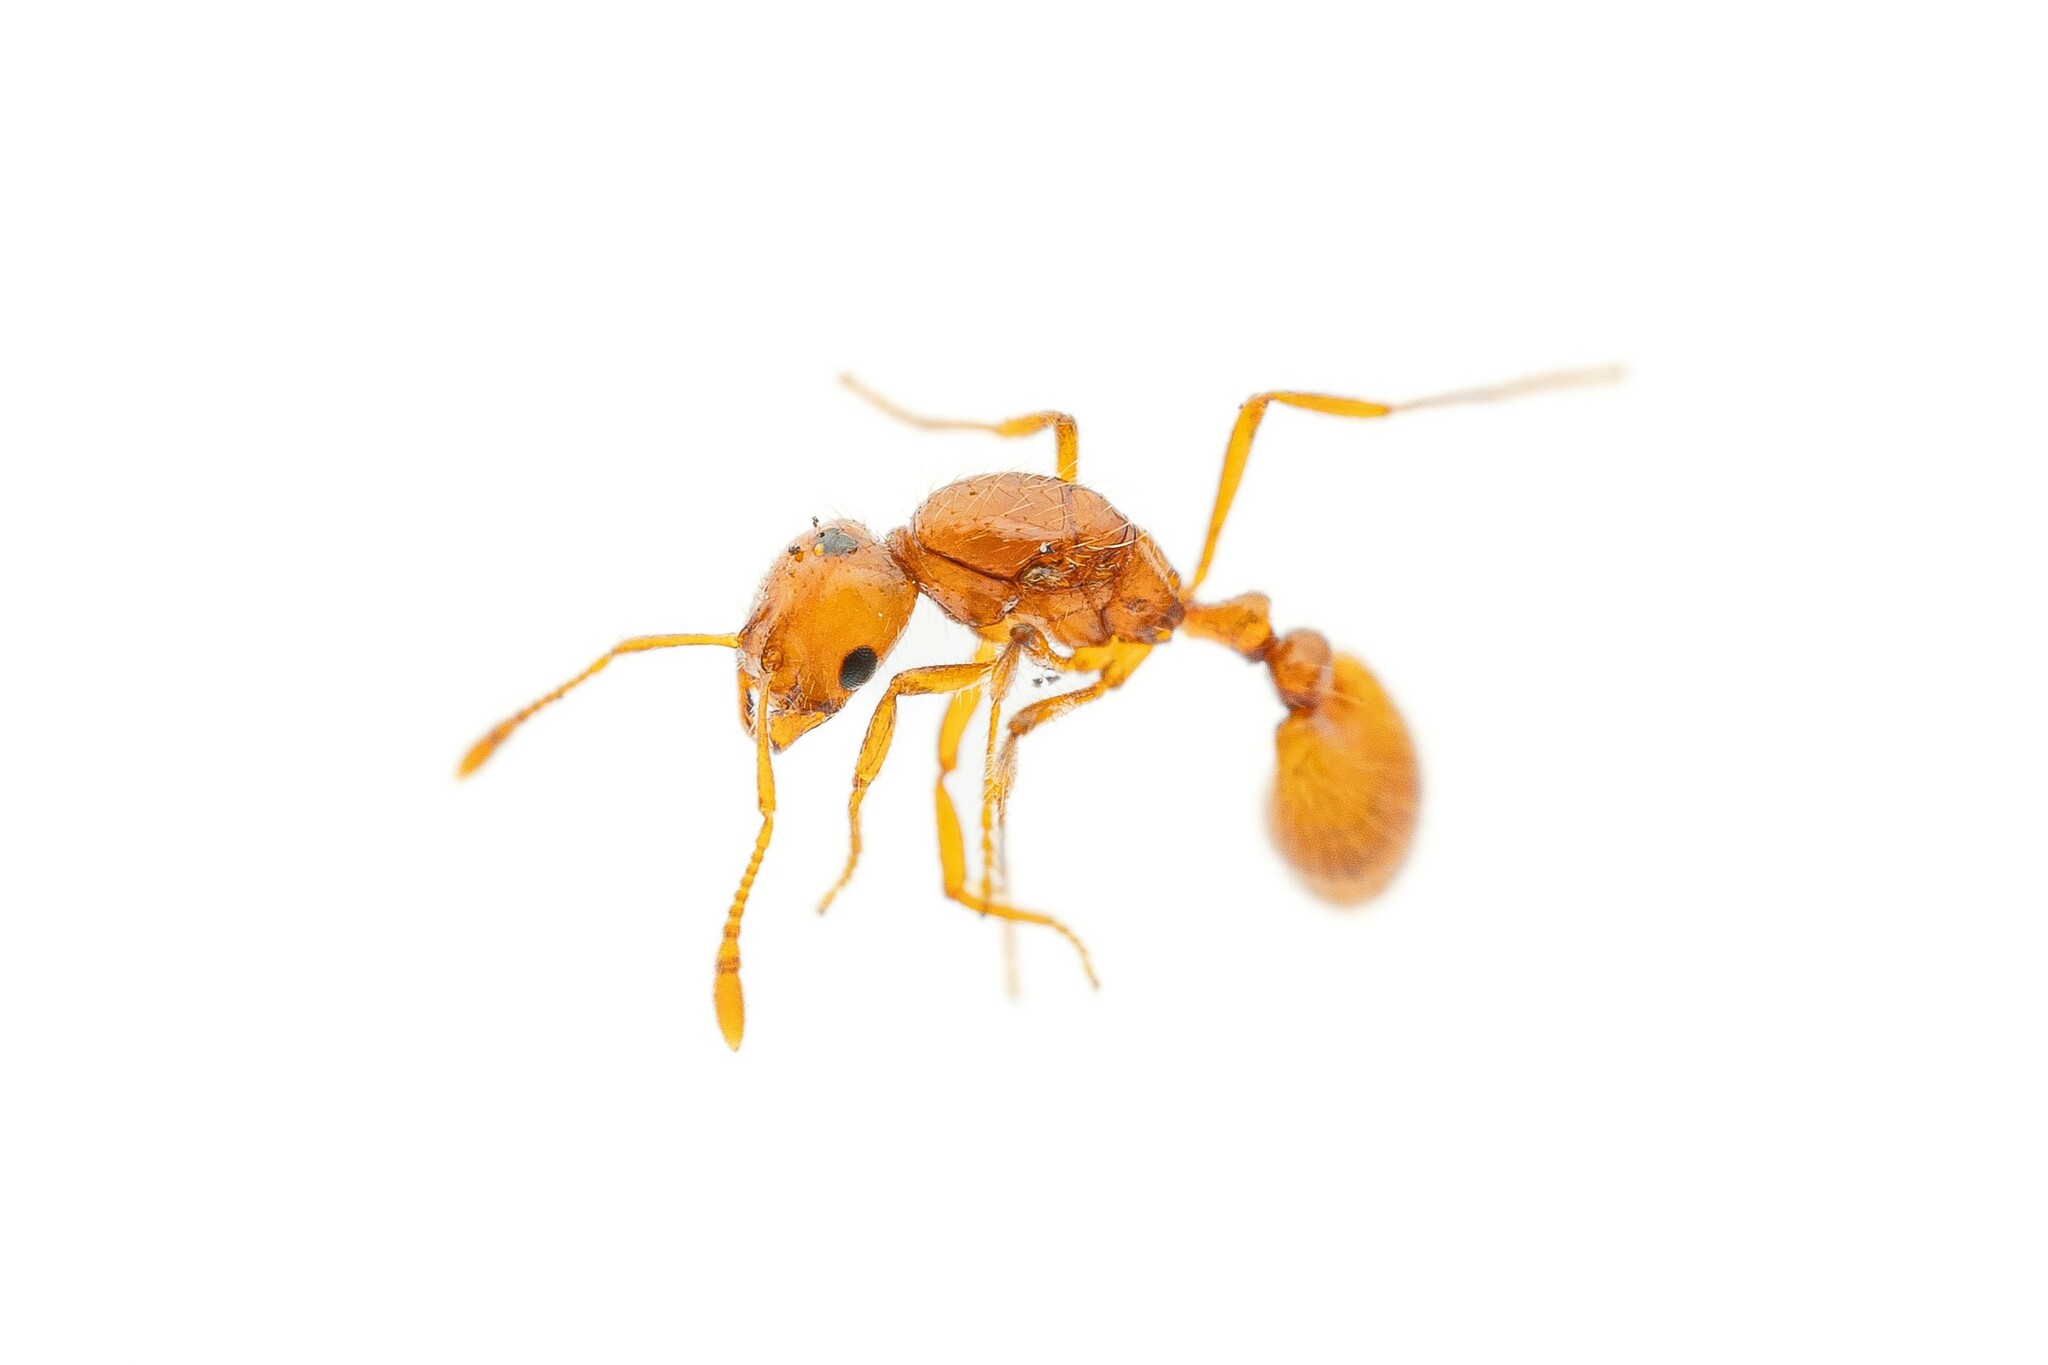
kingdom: Animalia
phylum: Arthropoda
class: Insecta
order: Hymenoptera
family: Formicidae
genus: Solenopsis
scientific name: Solenopsis
